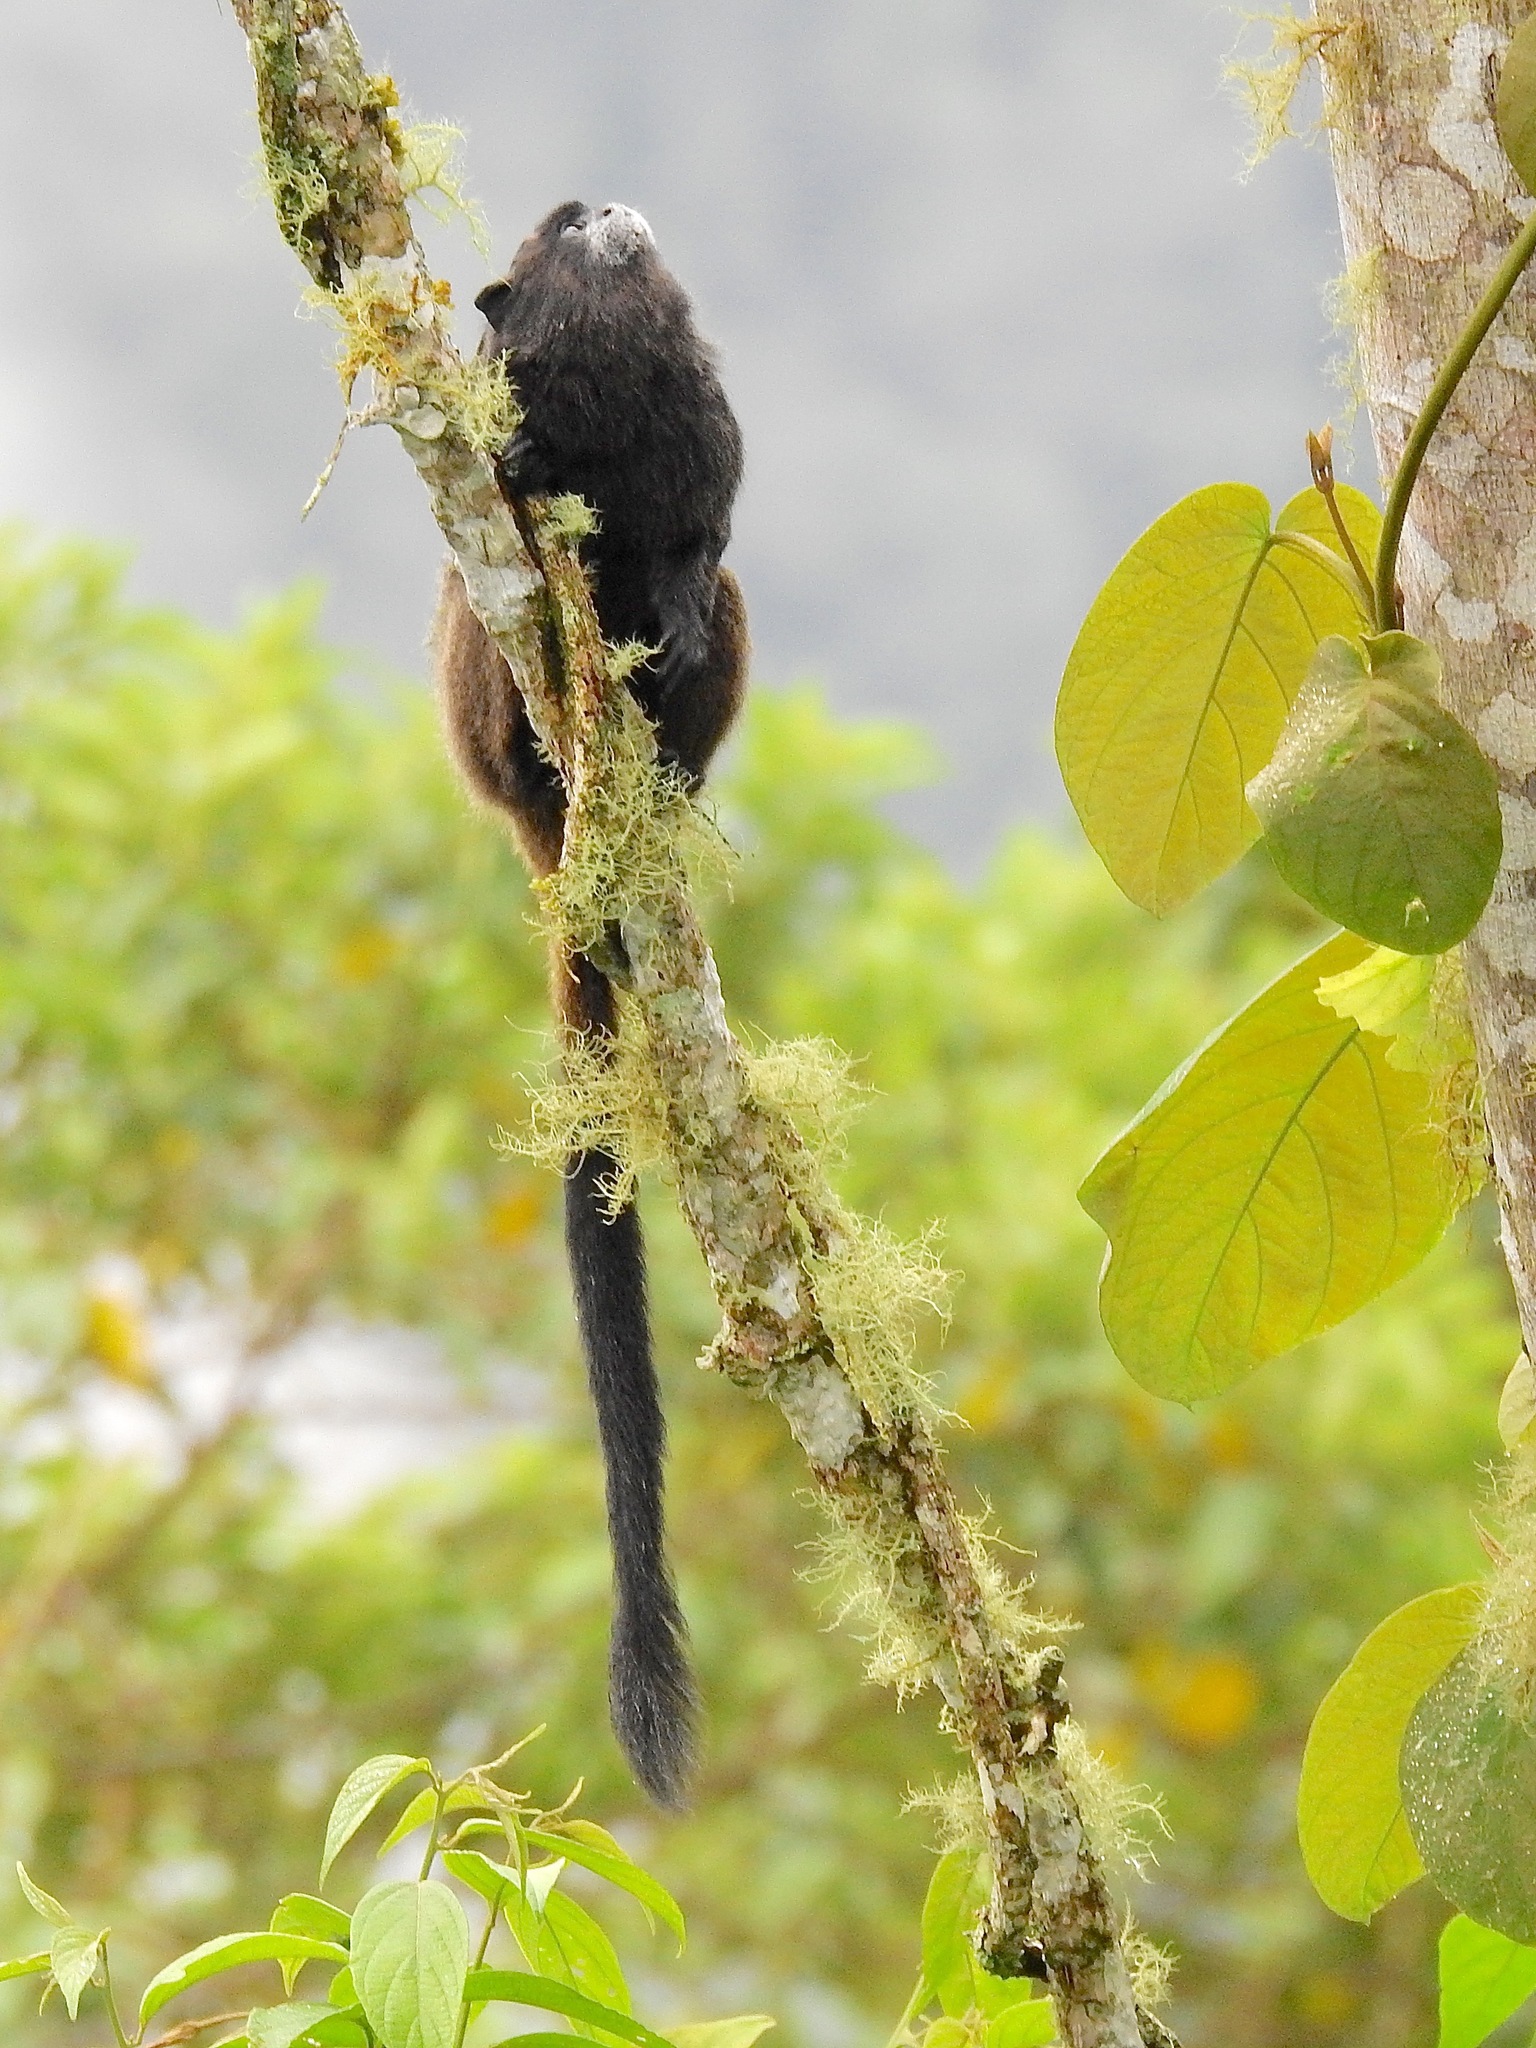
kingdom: Animalia
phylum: Chordata
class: Mammalia
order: Primates
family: Callitrichidae
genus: Leontocebus
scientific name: Leontocebus nigricollis
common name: Black-mantled tamarin
